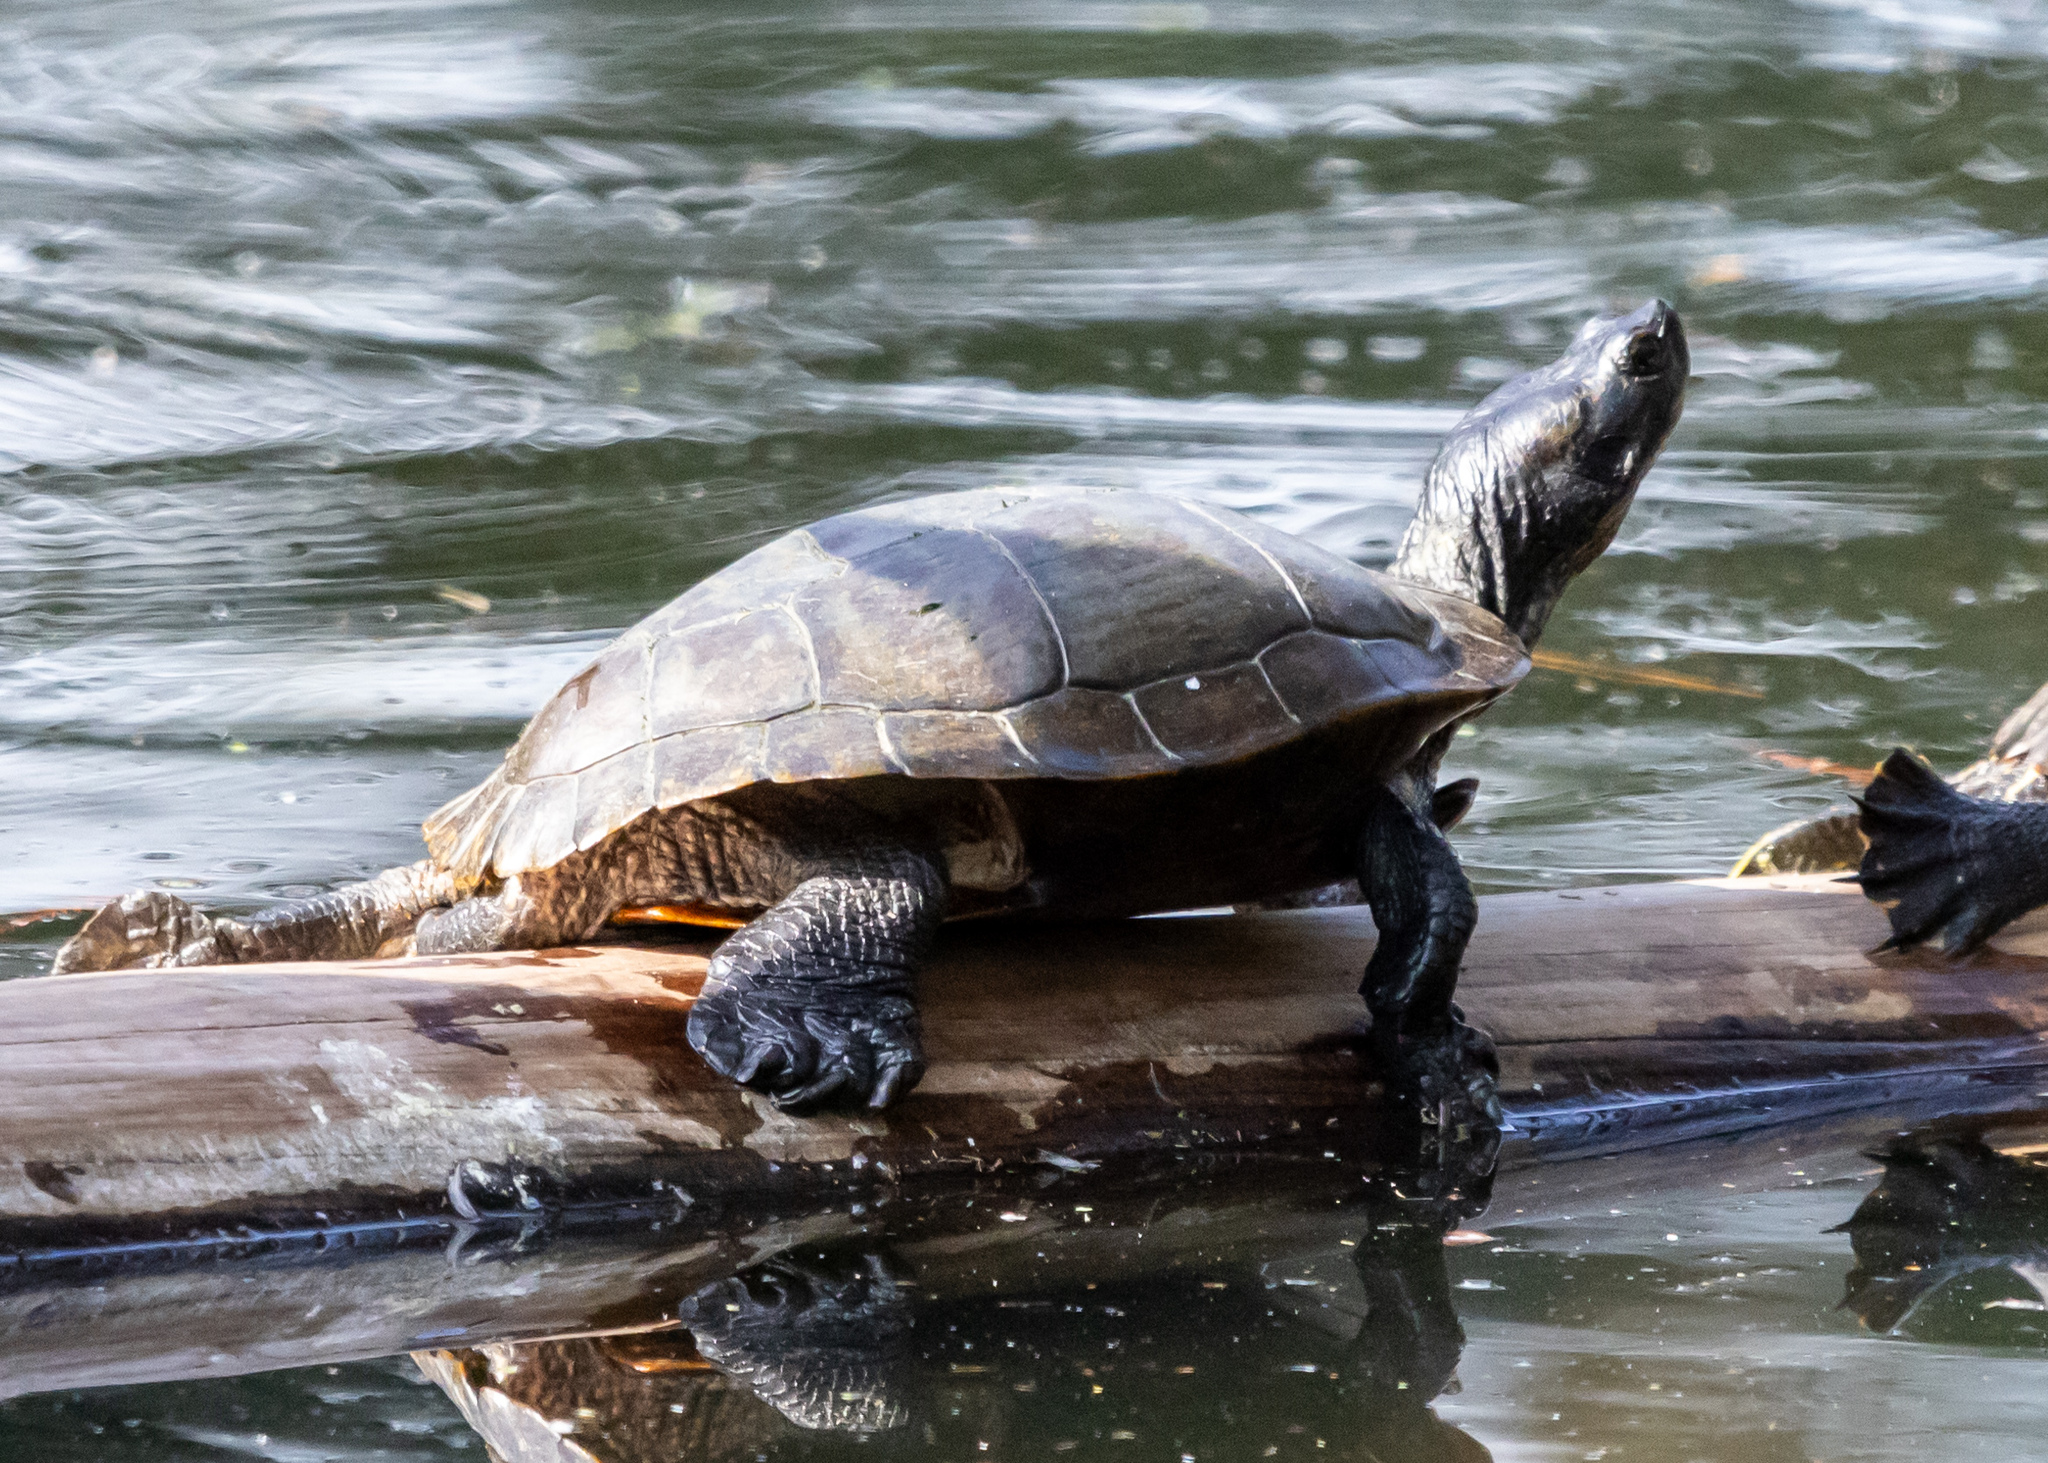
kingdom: Animalia
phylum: Chordata
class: Testudines
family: Emydidae
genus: Trachemys
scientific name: Trachemys scripta
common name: Slider
